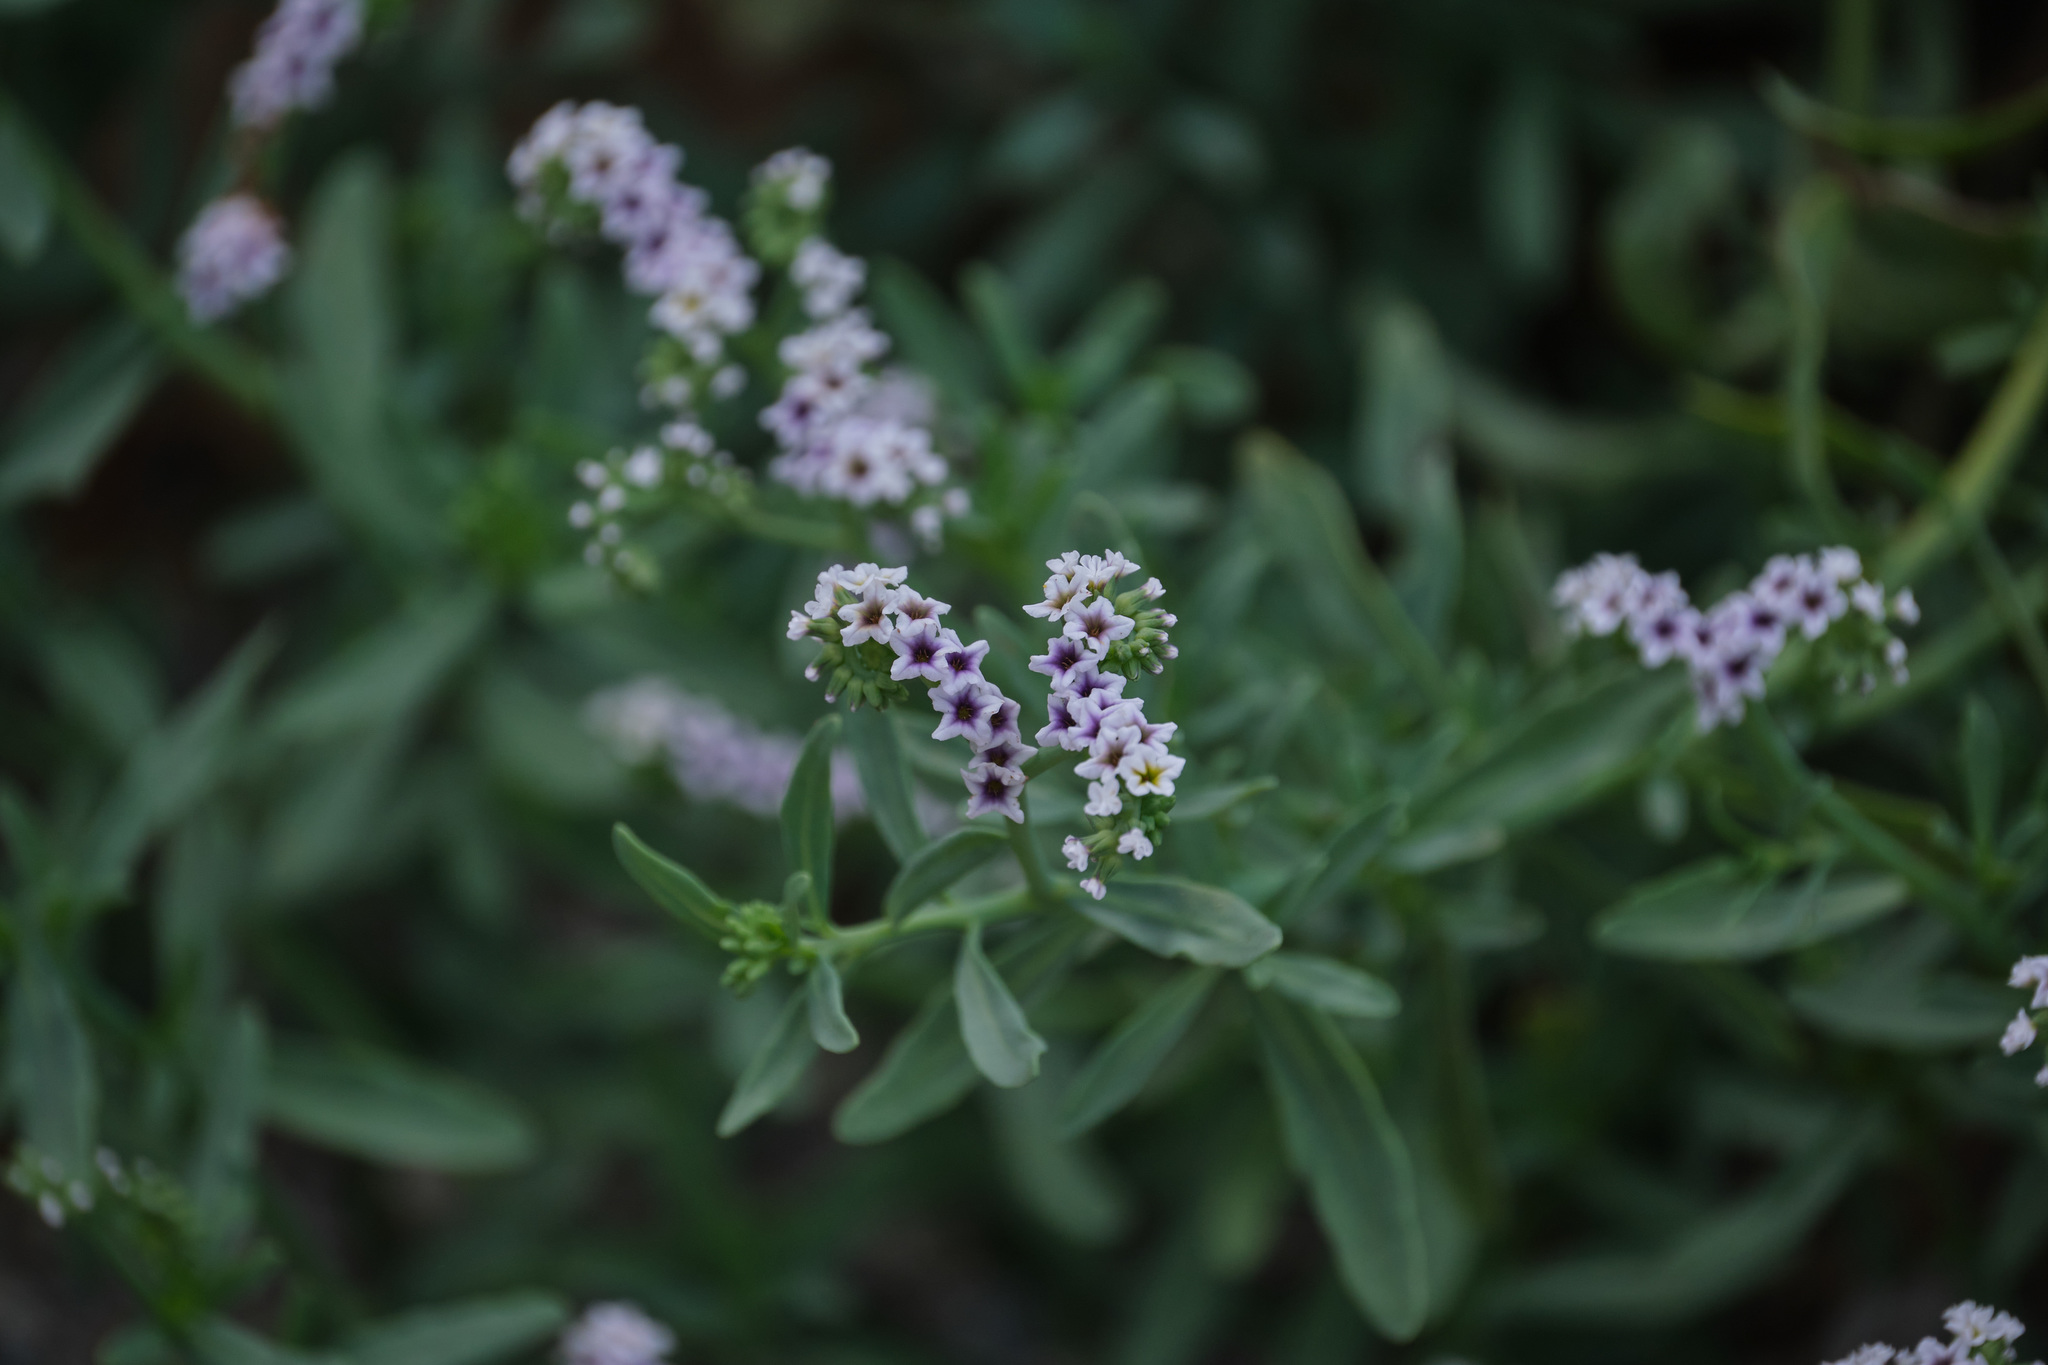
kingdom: Plantae
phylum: Tracheophyta
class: Magnoliopsida
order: Boraginales
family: Heliotropiaceae
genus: Heliotropium
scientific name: Heliotropium curassavicum
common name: Seaside heliotrope
